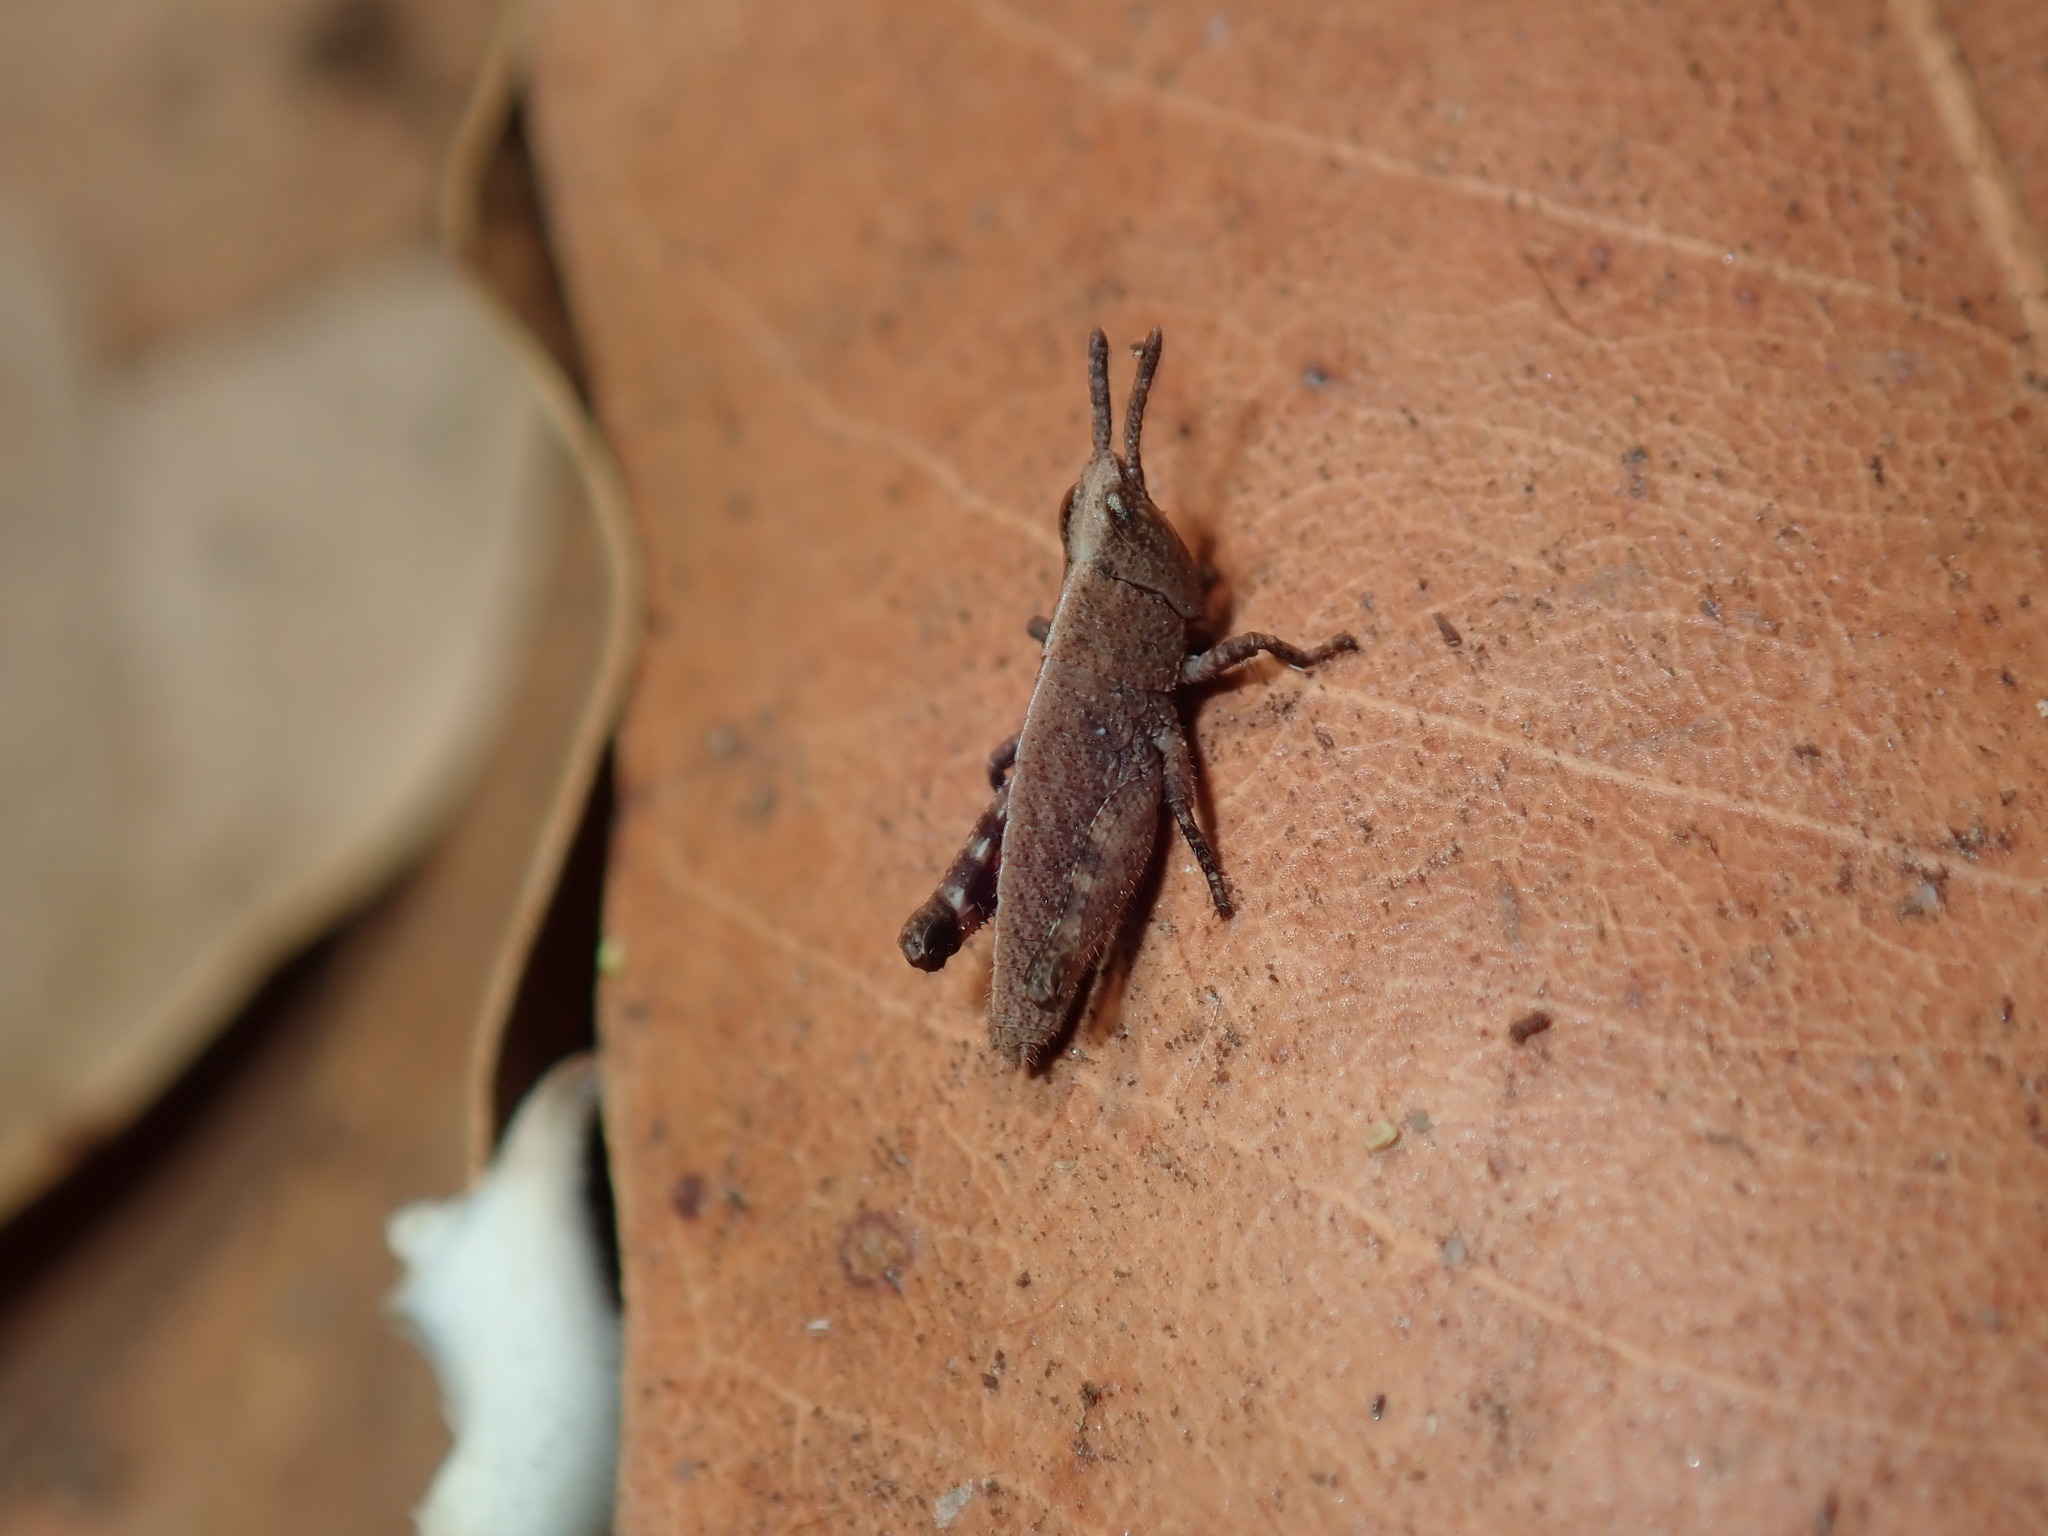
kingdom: Animalia
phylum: Arthropoda
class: Insecta
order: Orthoptera
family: Acrididae
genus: Goniaea
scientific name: Goniaea opomaloides
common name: Mimetic gumleaf grasshopper
